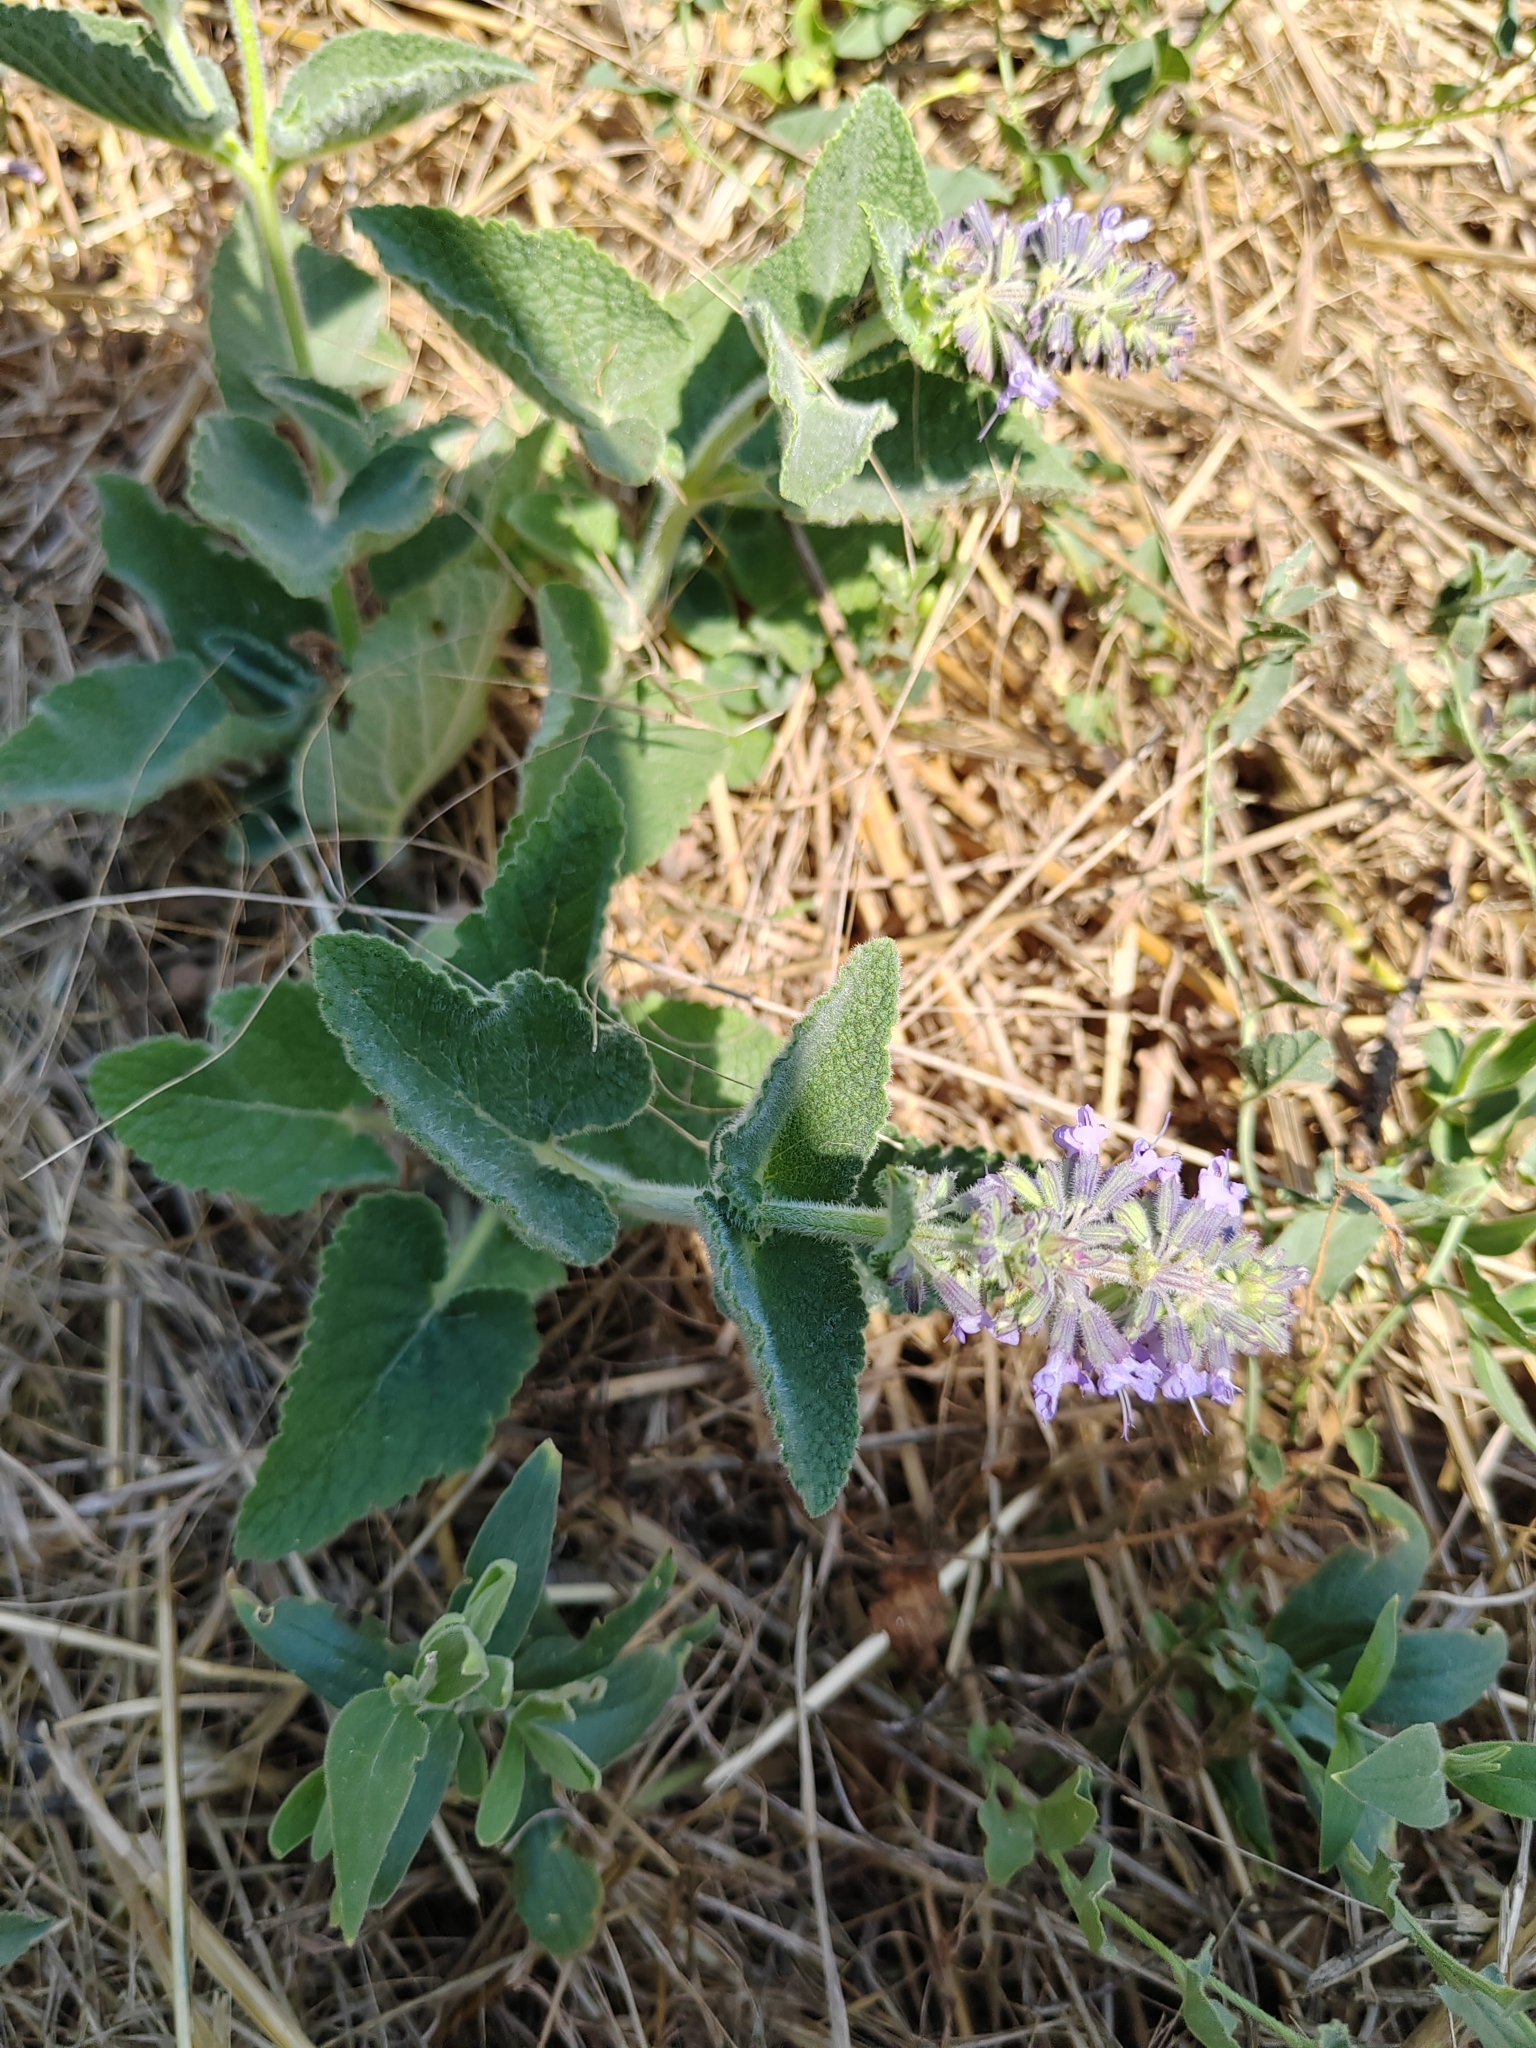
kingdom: Plantae
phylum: Tracheophyta
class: Magnoliopsida
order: Lamiales
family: Lamiaceae
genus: Salvia
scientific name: Salvia verticillata
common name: Whorled clary
